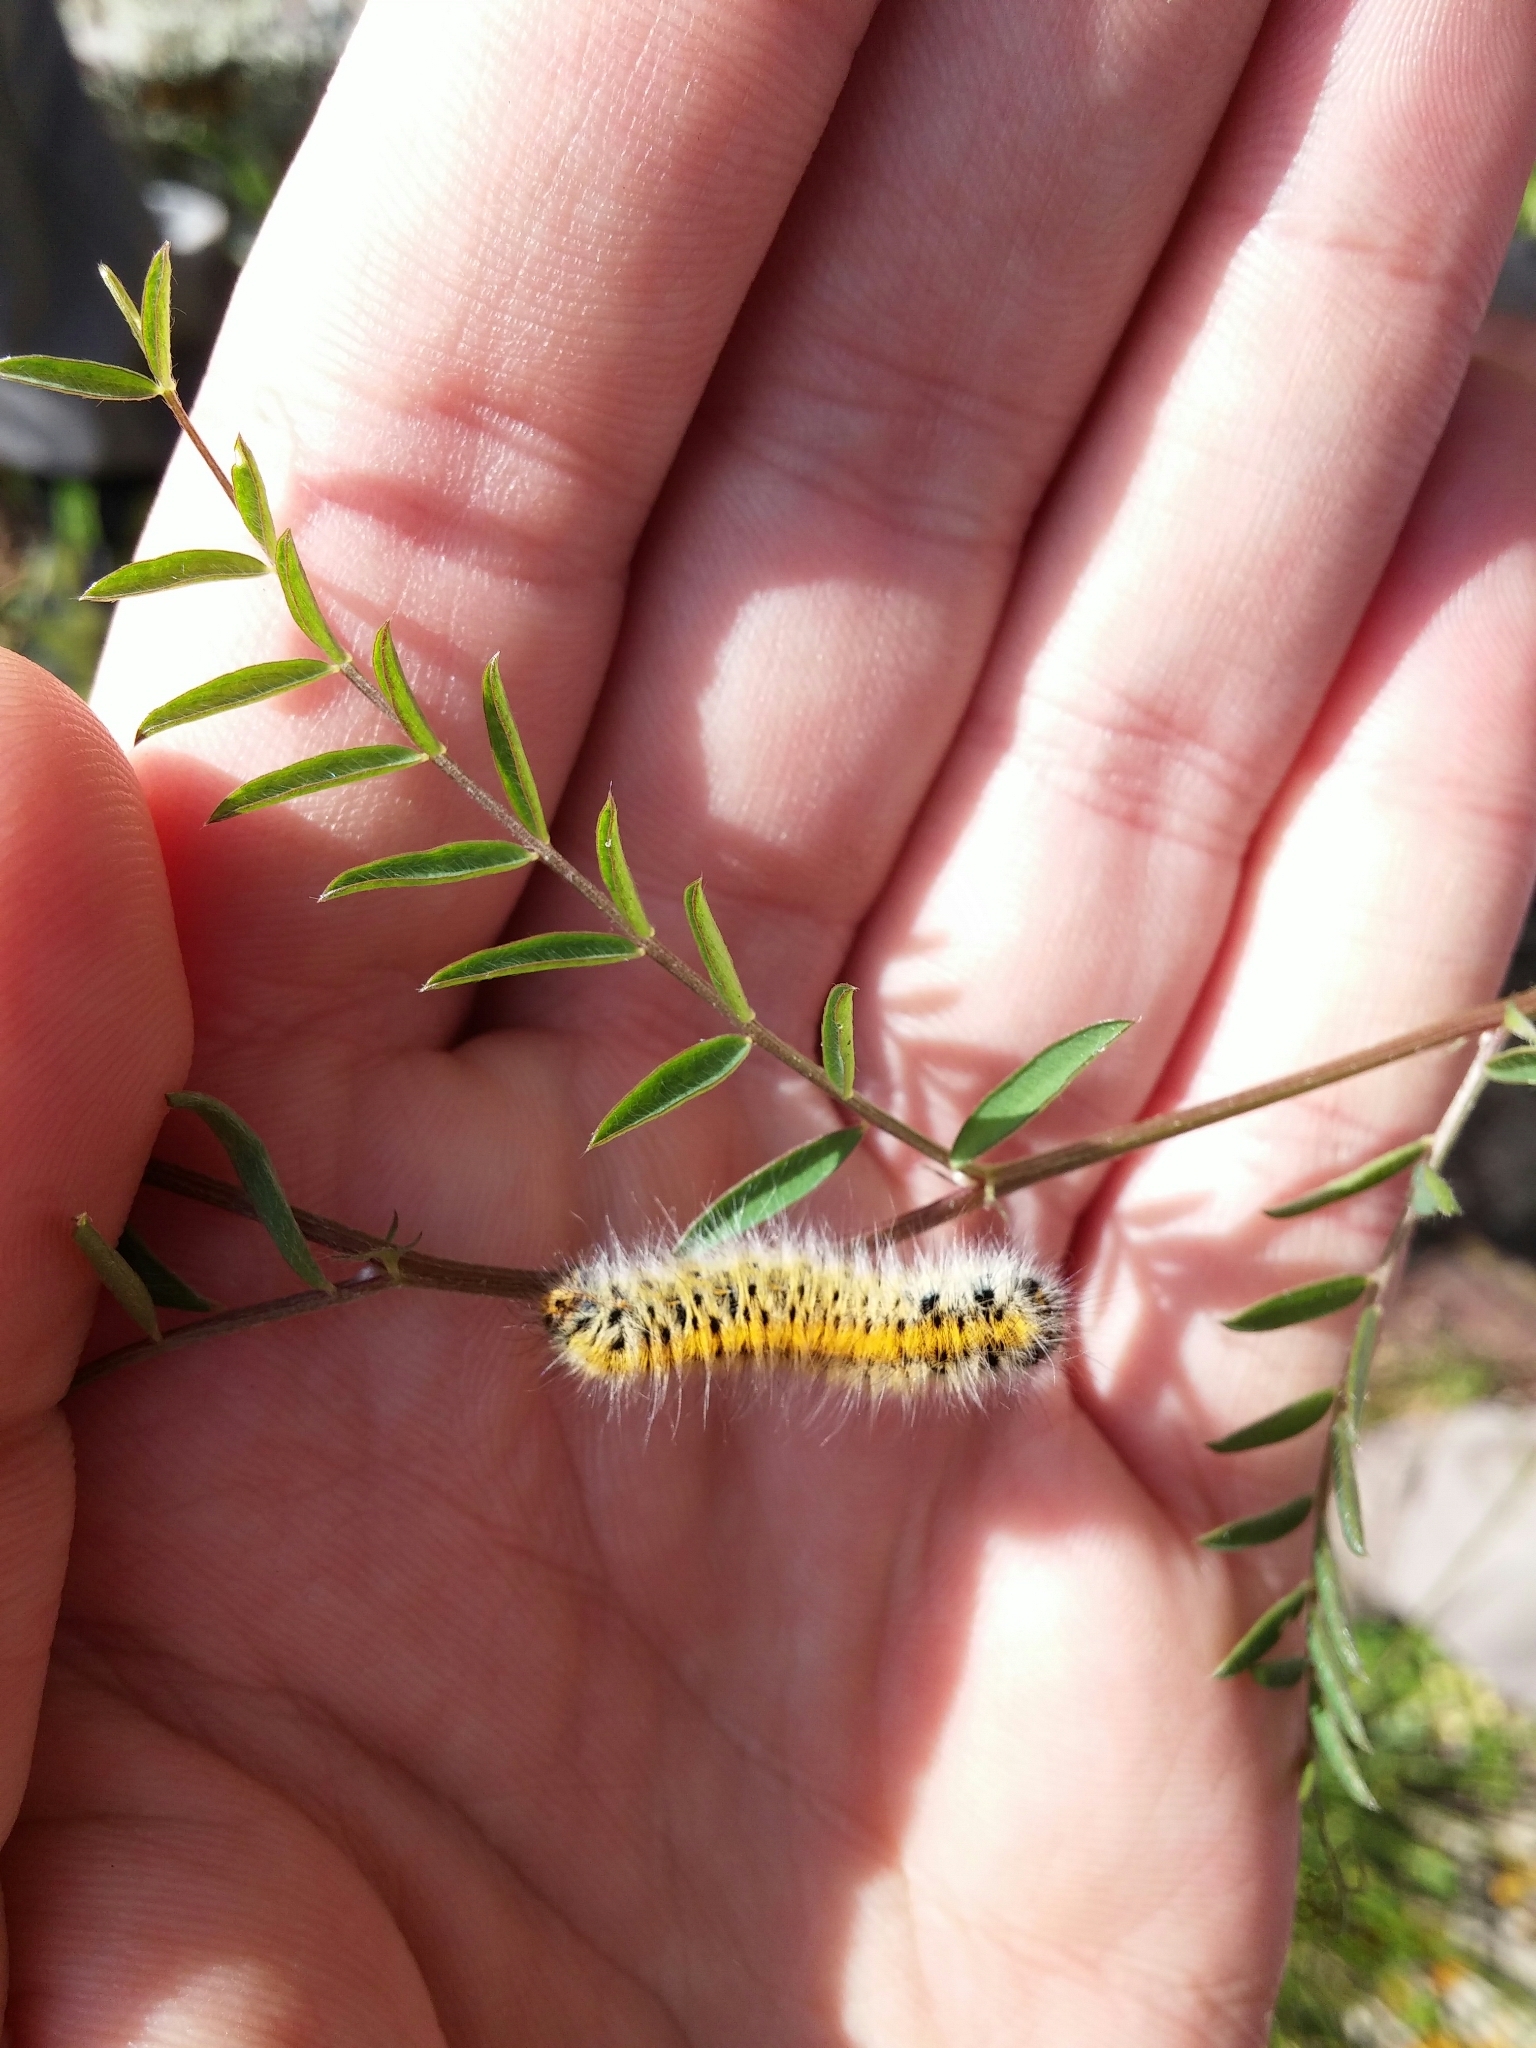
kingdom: Animalia
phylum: Arthropoda
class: Insecta
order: Lepidoptera
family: Lasiocampidae
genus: Lasiocampa
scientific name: Lasiocampa trifolii
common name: Grass eggar
